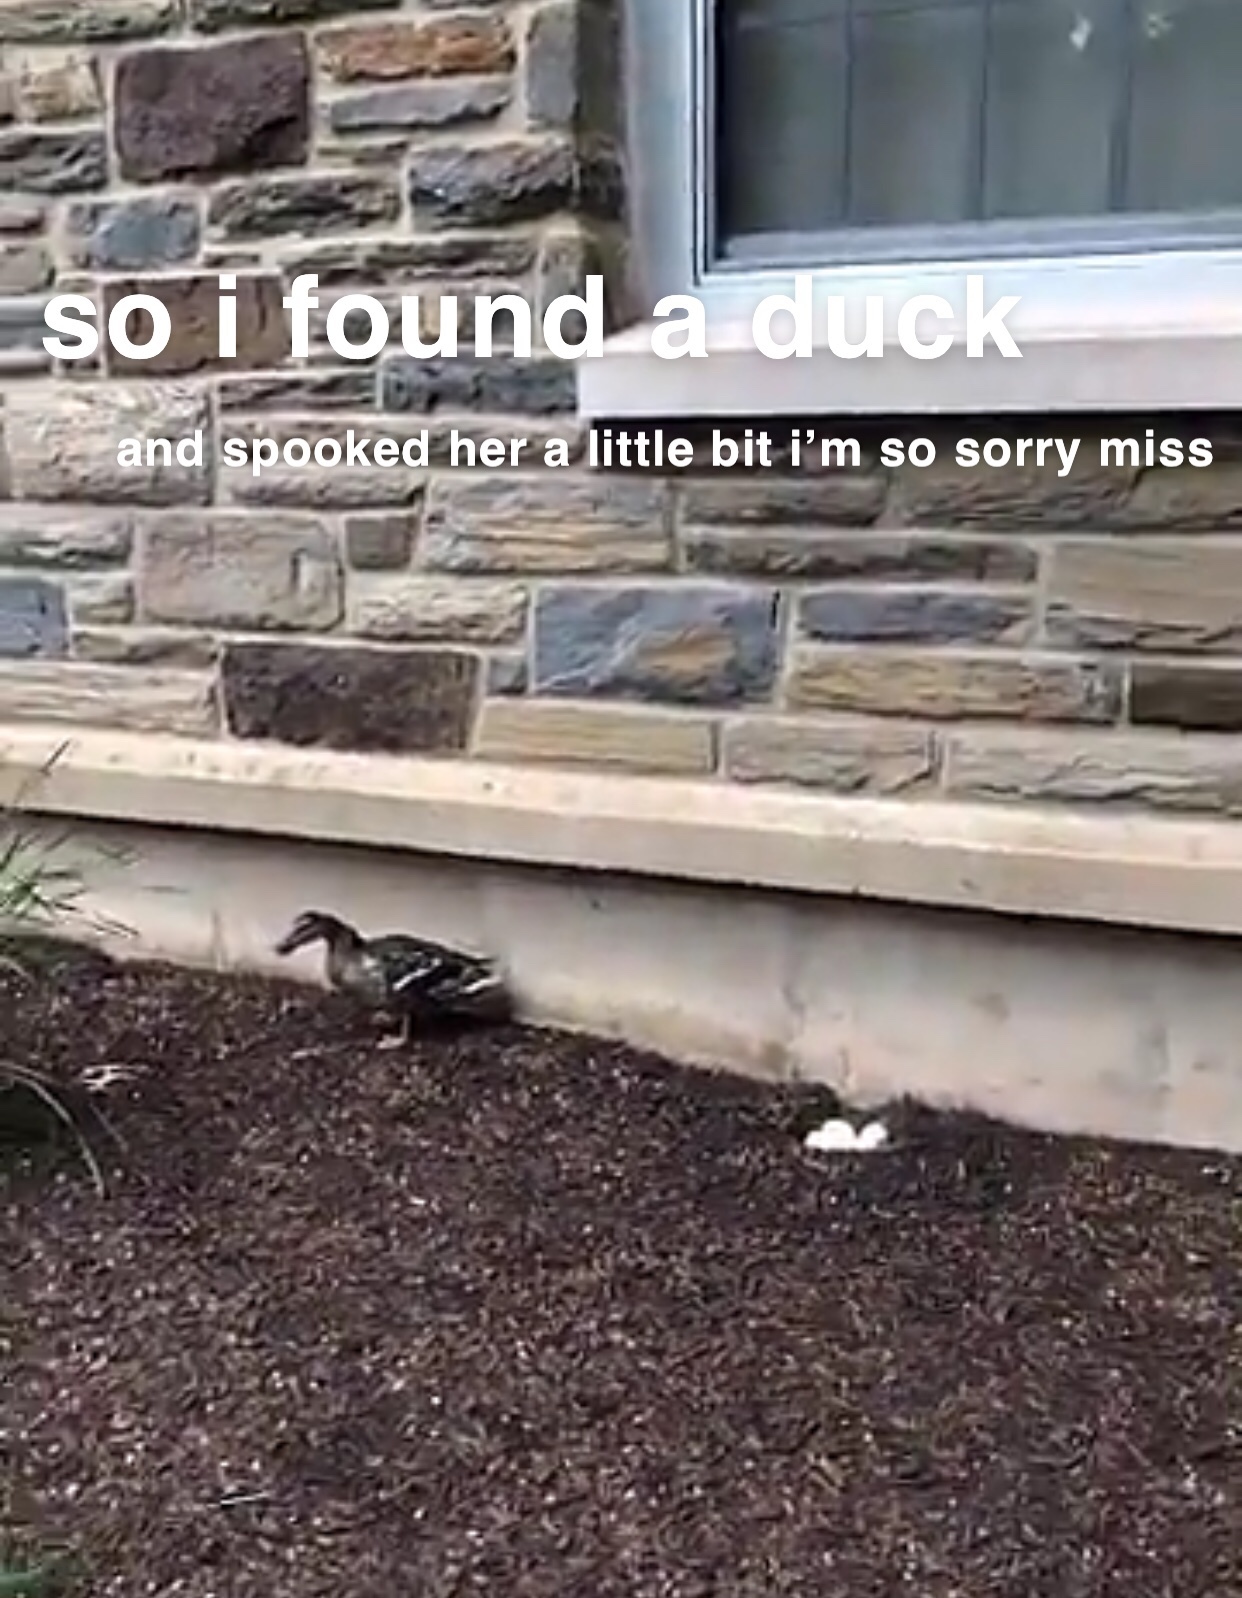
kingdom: Animalia
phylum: Chordata
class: Aves
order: Anseriformes
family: Anatidae
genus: Anas
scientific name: Anas platyrhynchos
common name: Mallard
